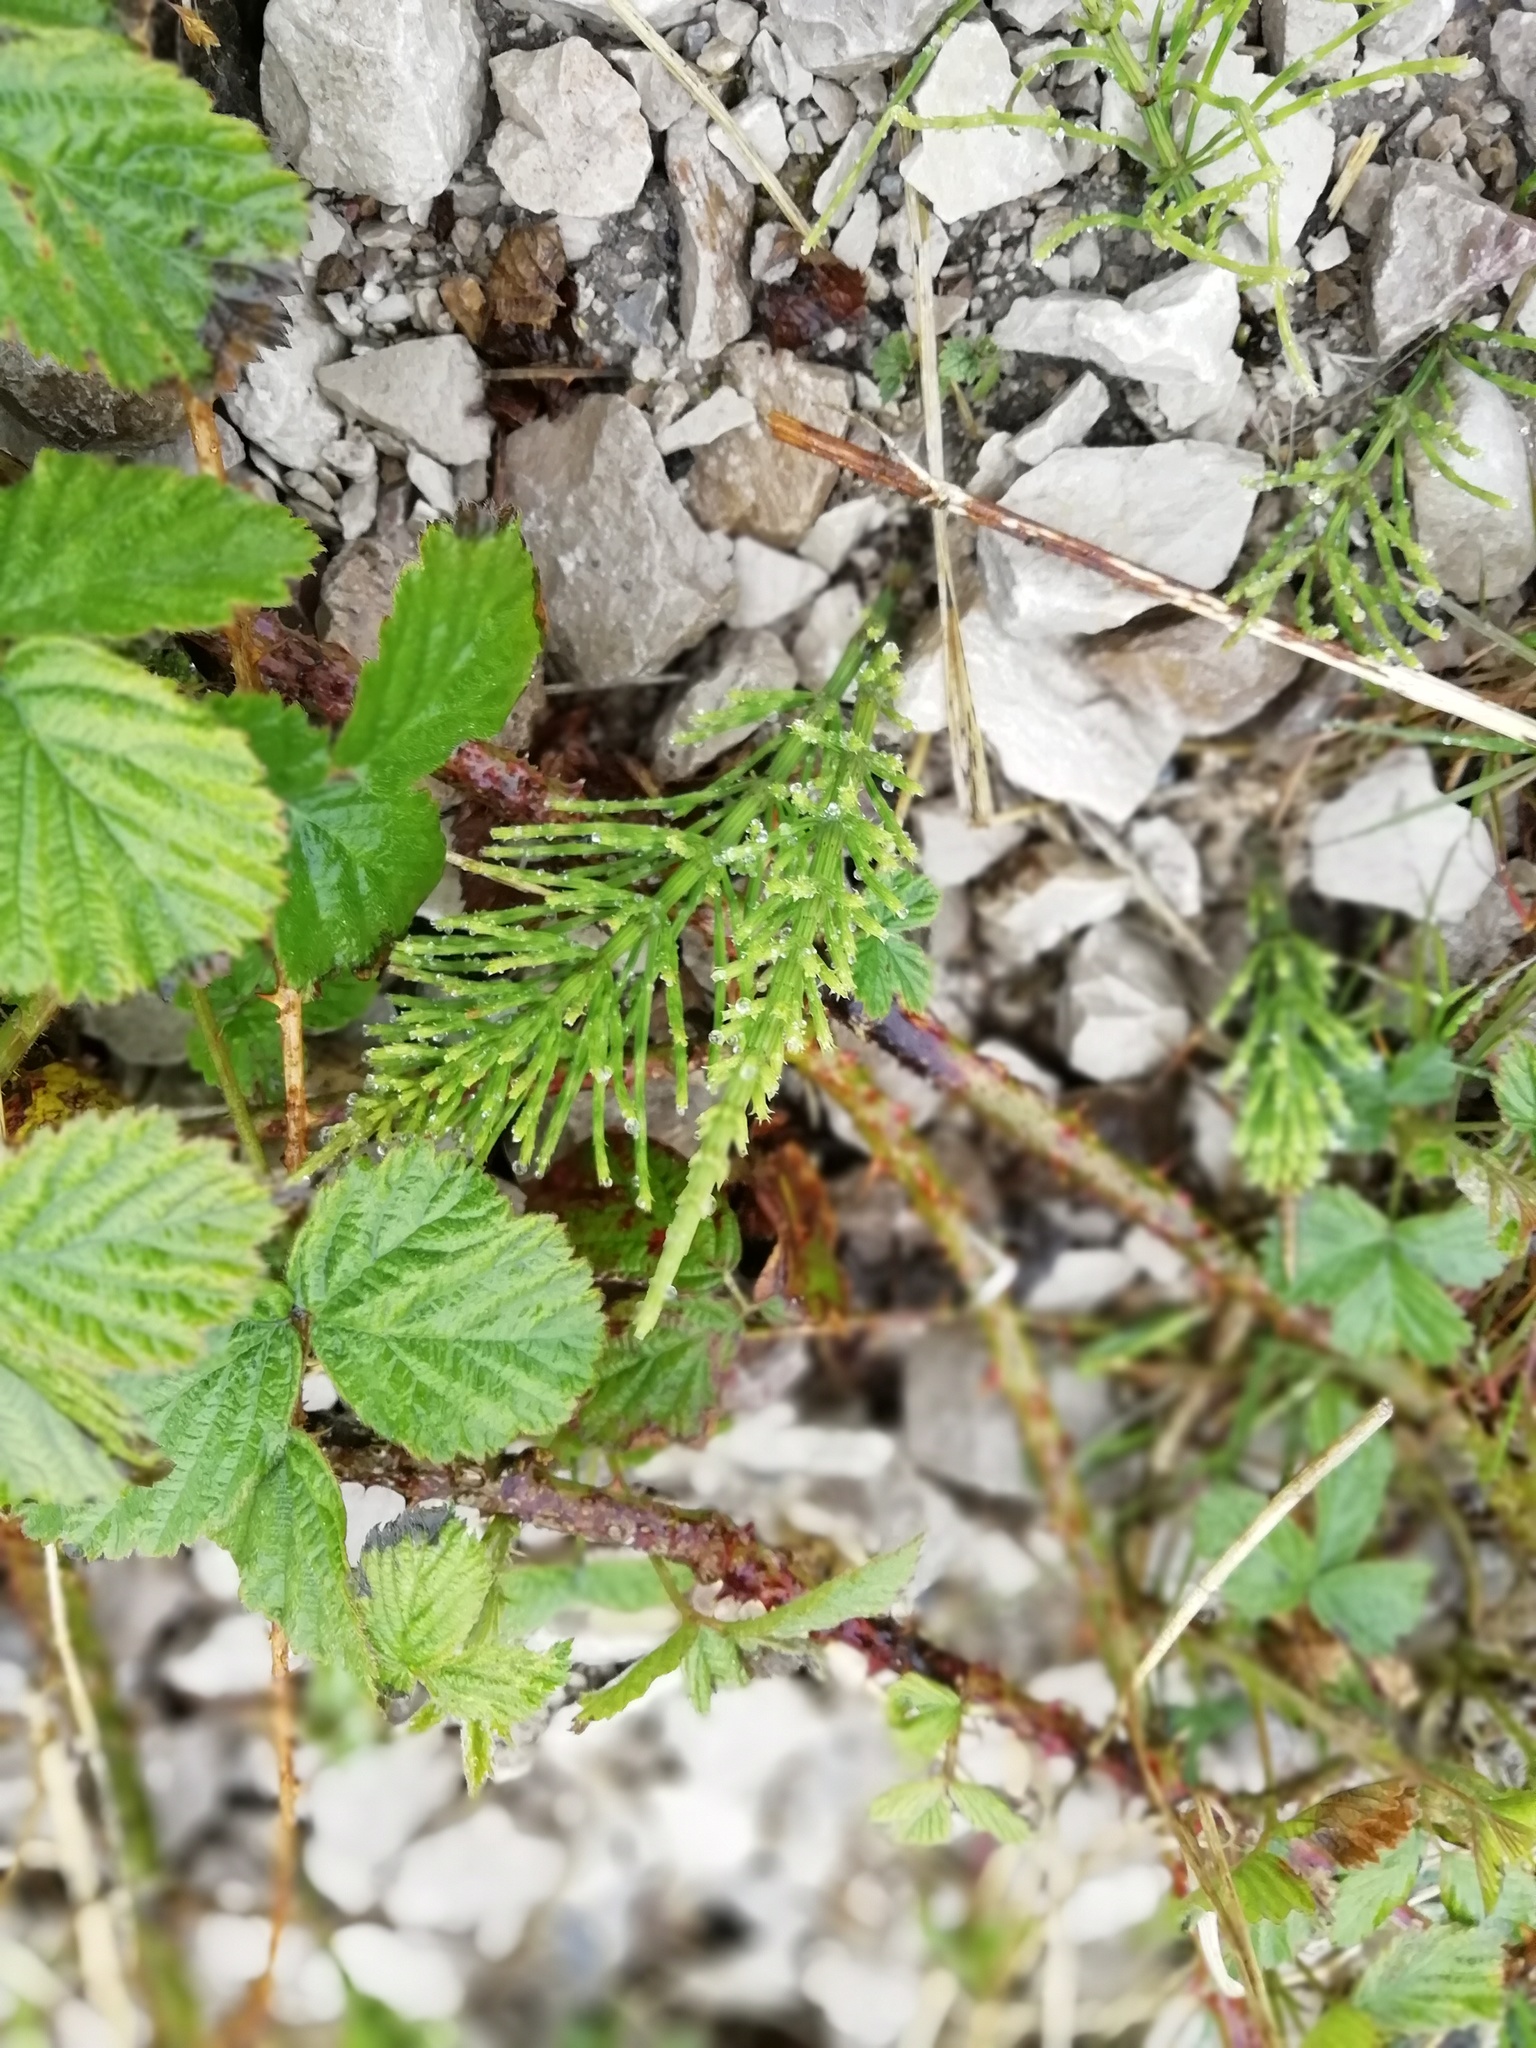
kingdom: Plantae
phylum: Tracheophyta
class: Polypodiopsida
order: Equisetales
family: Equisetaceae
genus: Equisetum
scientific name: Equisetum arvense
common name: Field horsetail
